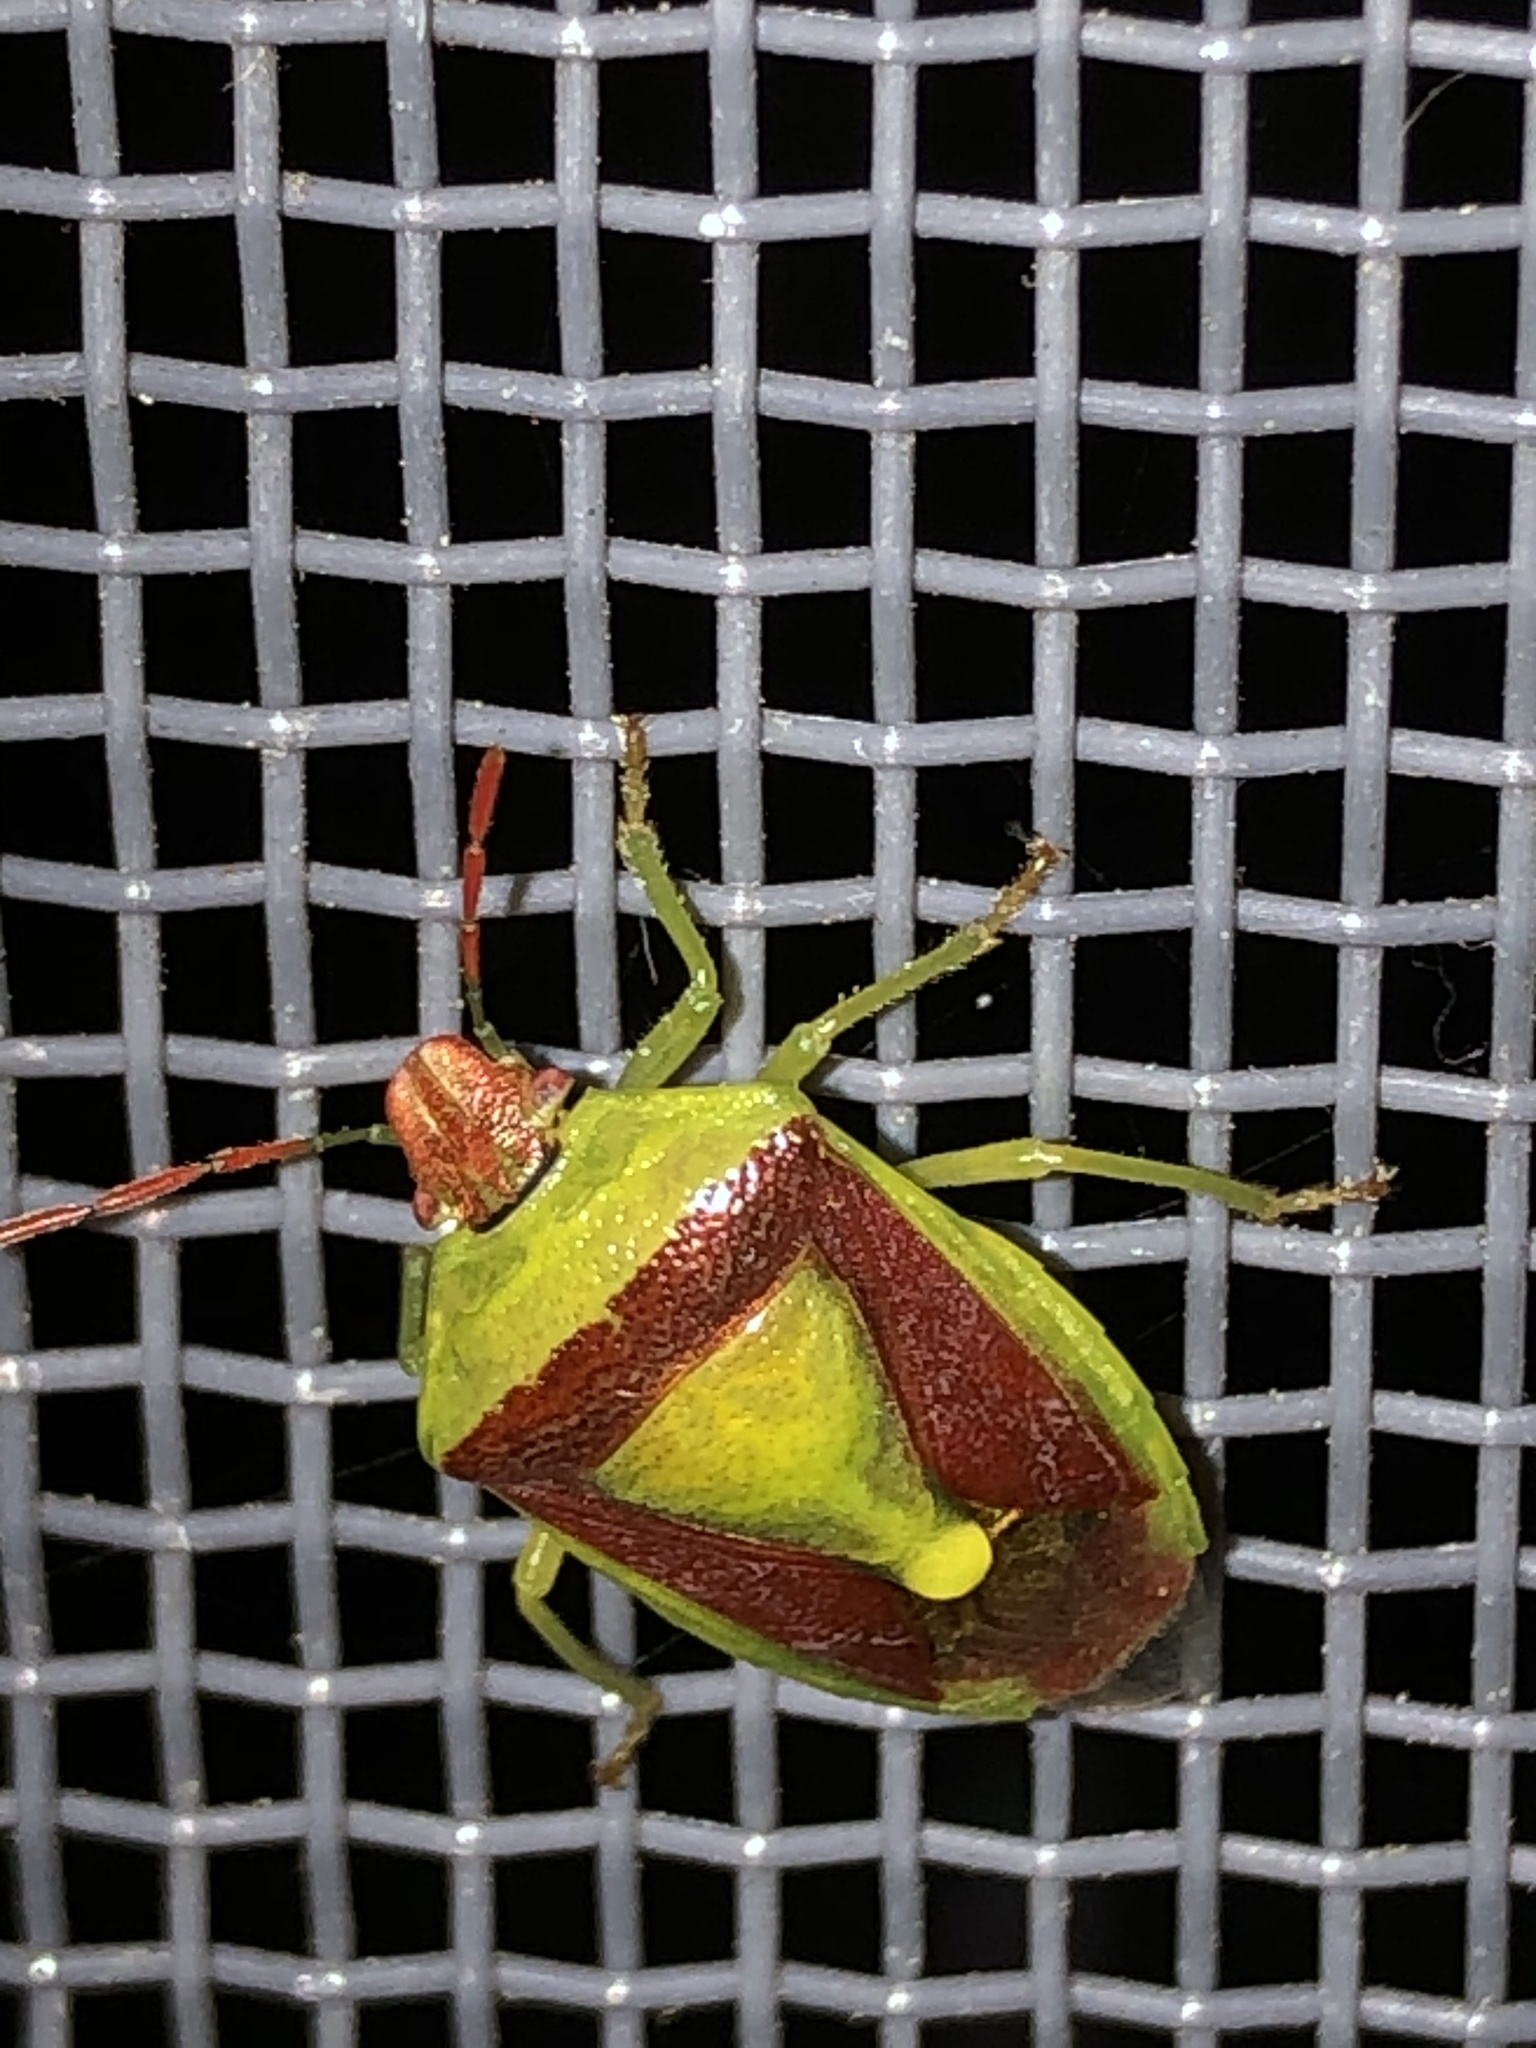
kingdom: Animalia
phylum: Arthropoda
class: Insecta
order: Hemiptera
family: Pentatomidae
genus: Banasa
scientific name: Banasa dimidiata
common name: Green burgundy stink bug
